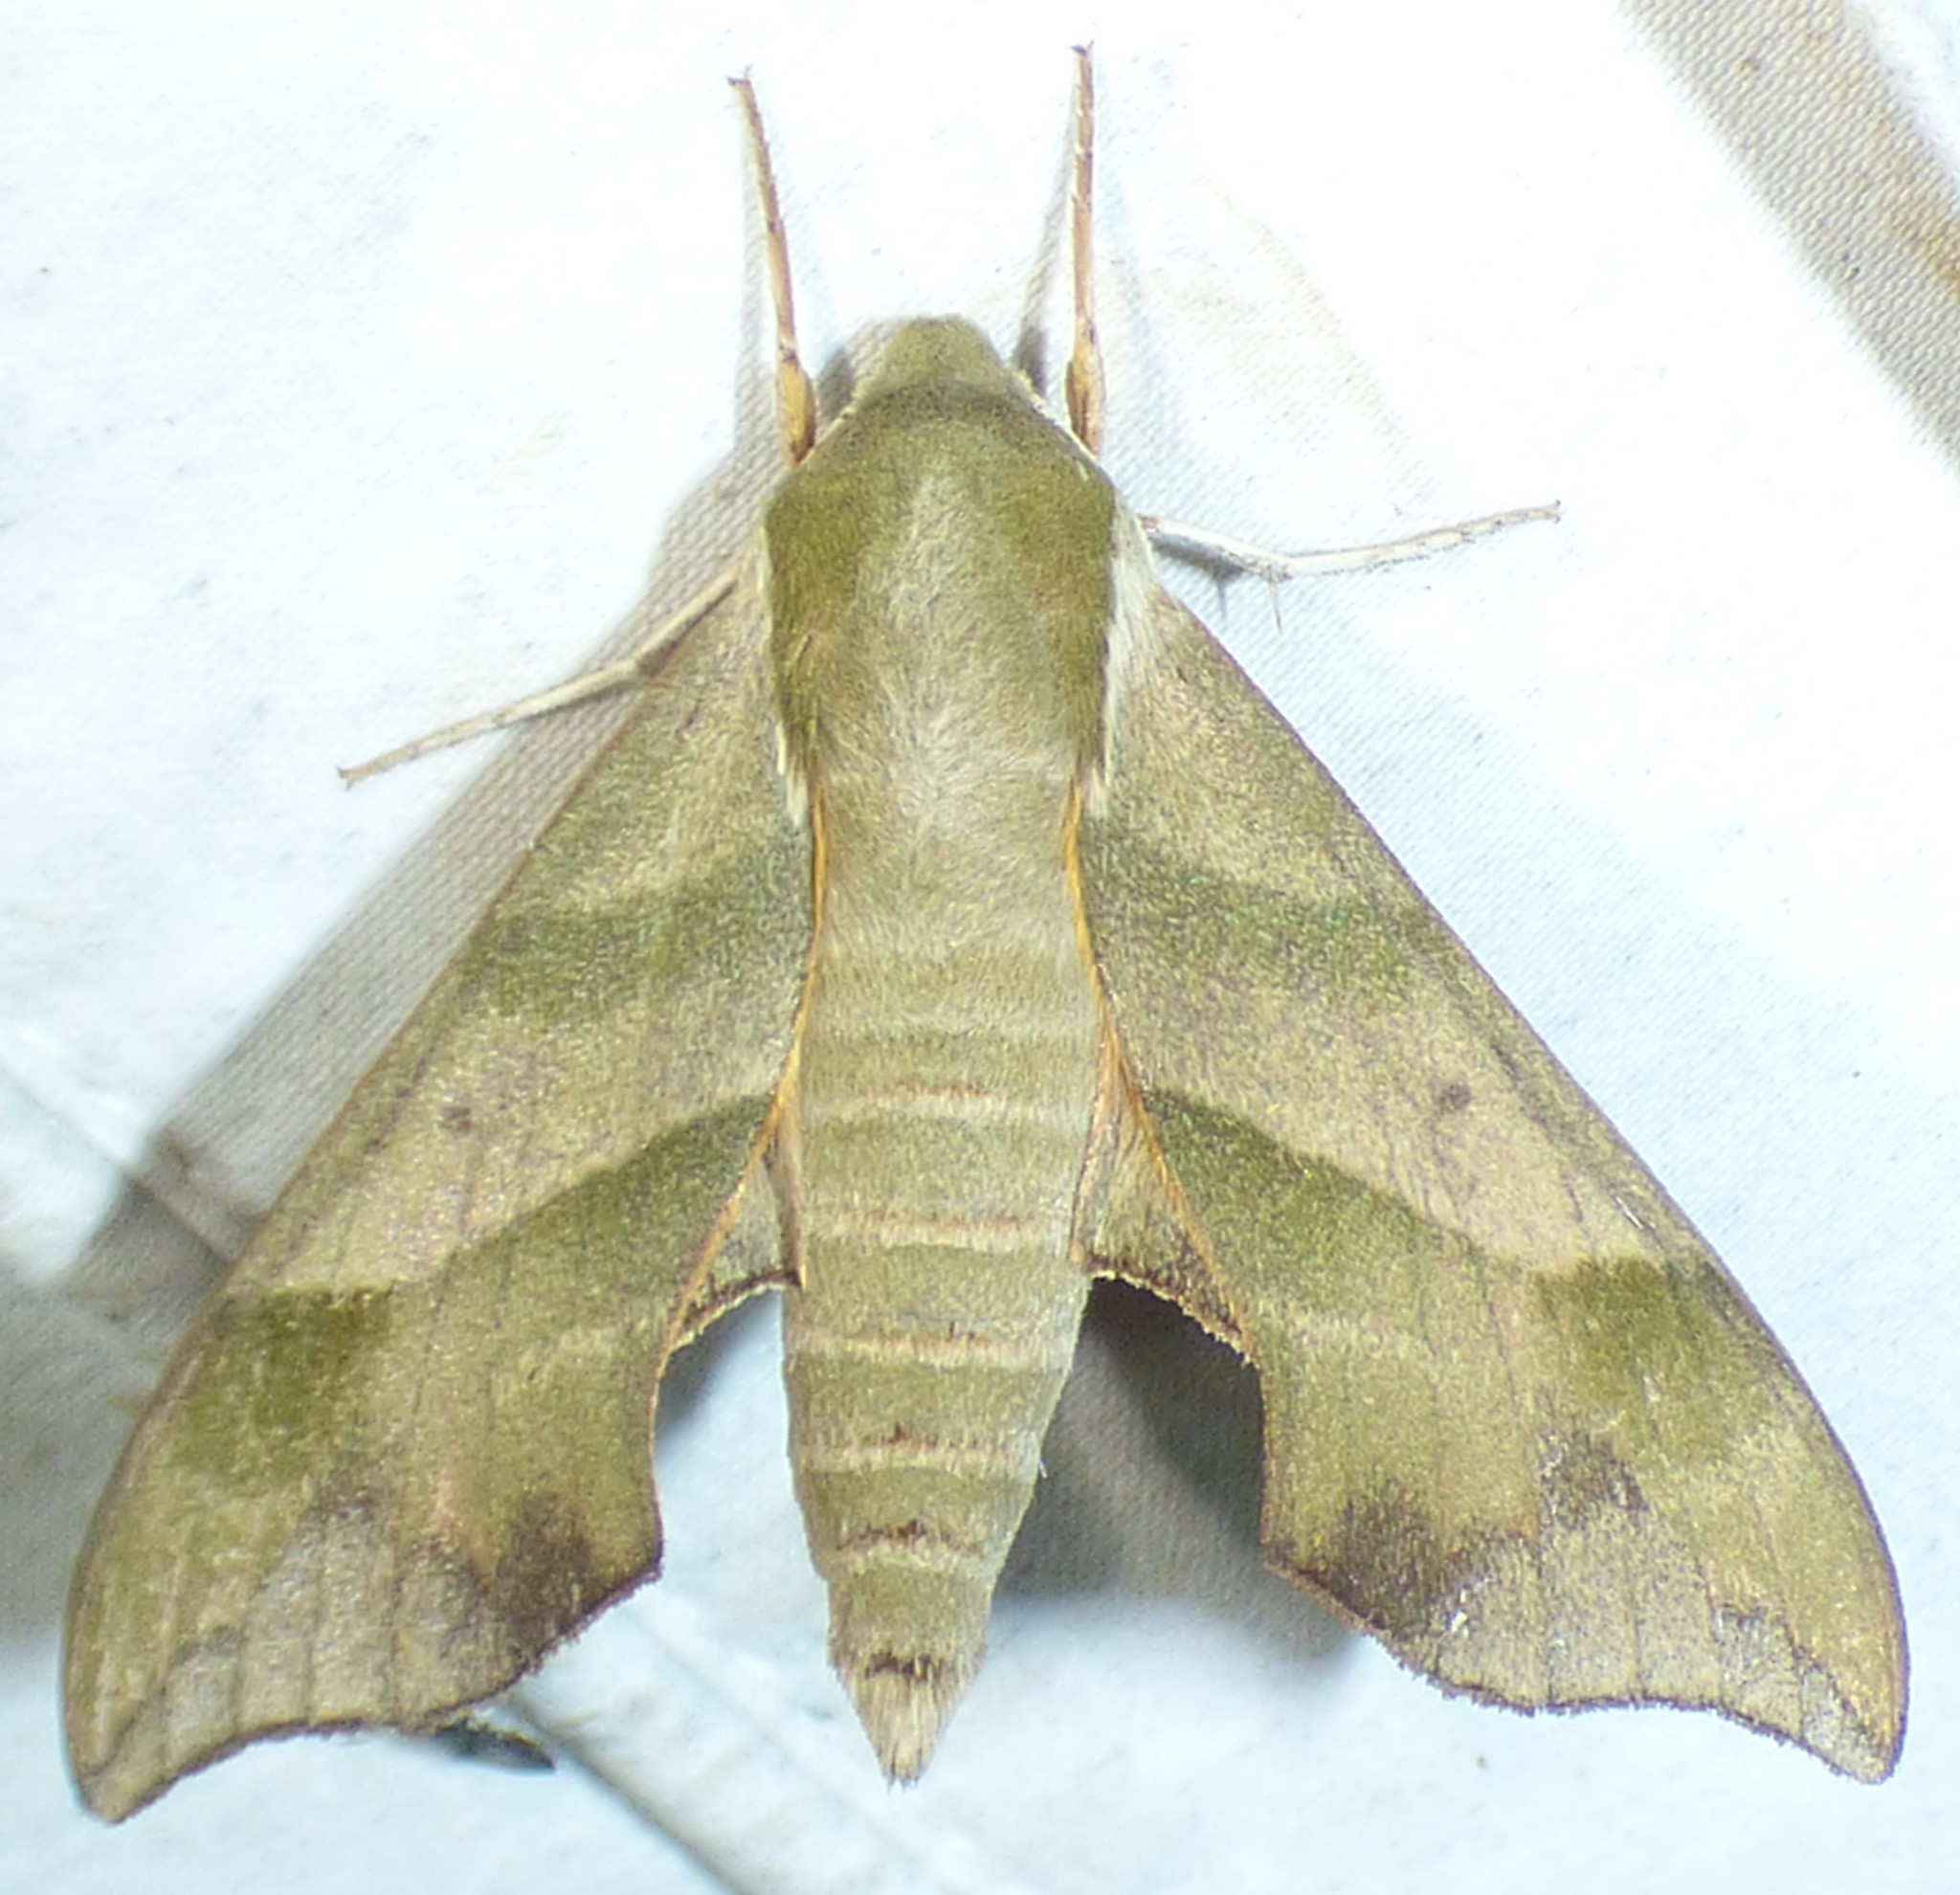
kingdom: Animalia
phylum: Arthropoda
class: Insecta
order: Lepidoptera
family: Sphingidae
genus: Darapsa
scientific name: Darapsa myron
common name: Hog sphinx
